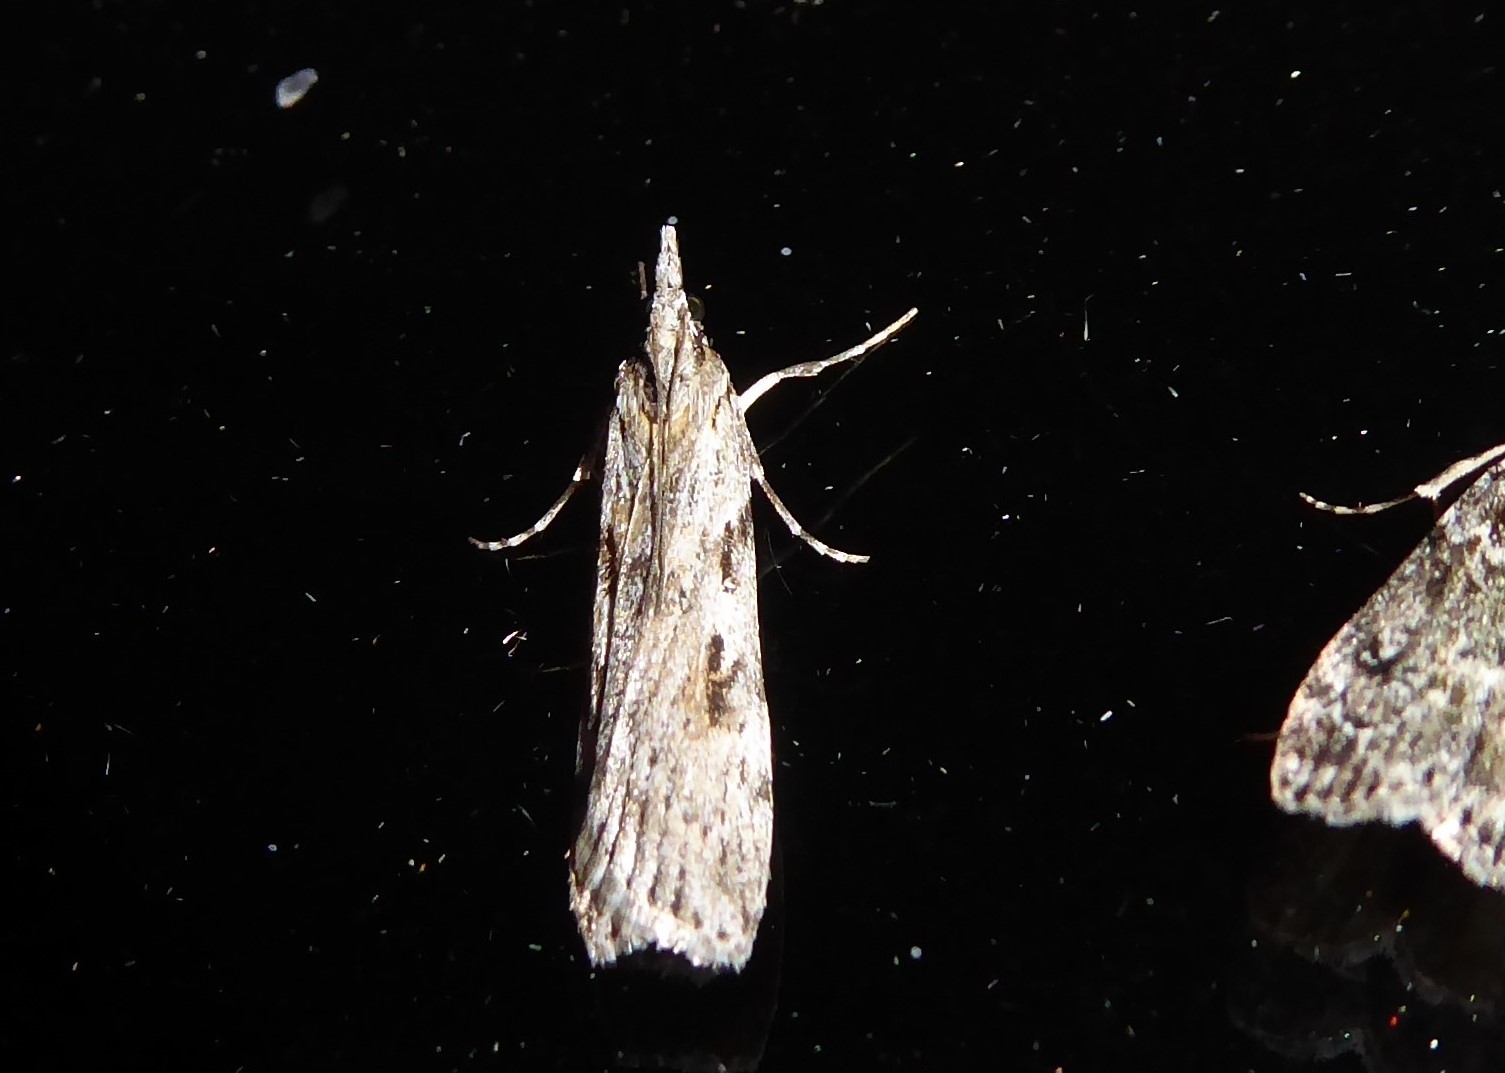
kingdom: Animalia
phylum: Arthropoda
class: Insecta
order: Lepidoptera
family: Crambidae
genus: Scoparia
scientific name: Scoparia halopis
